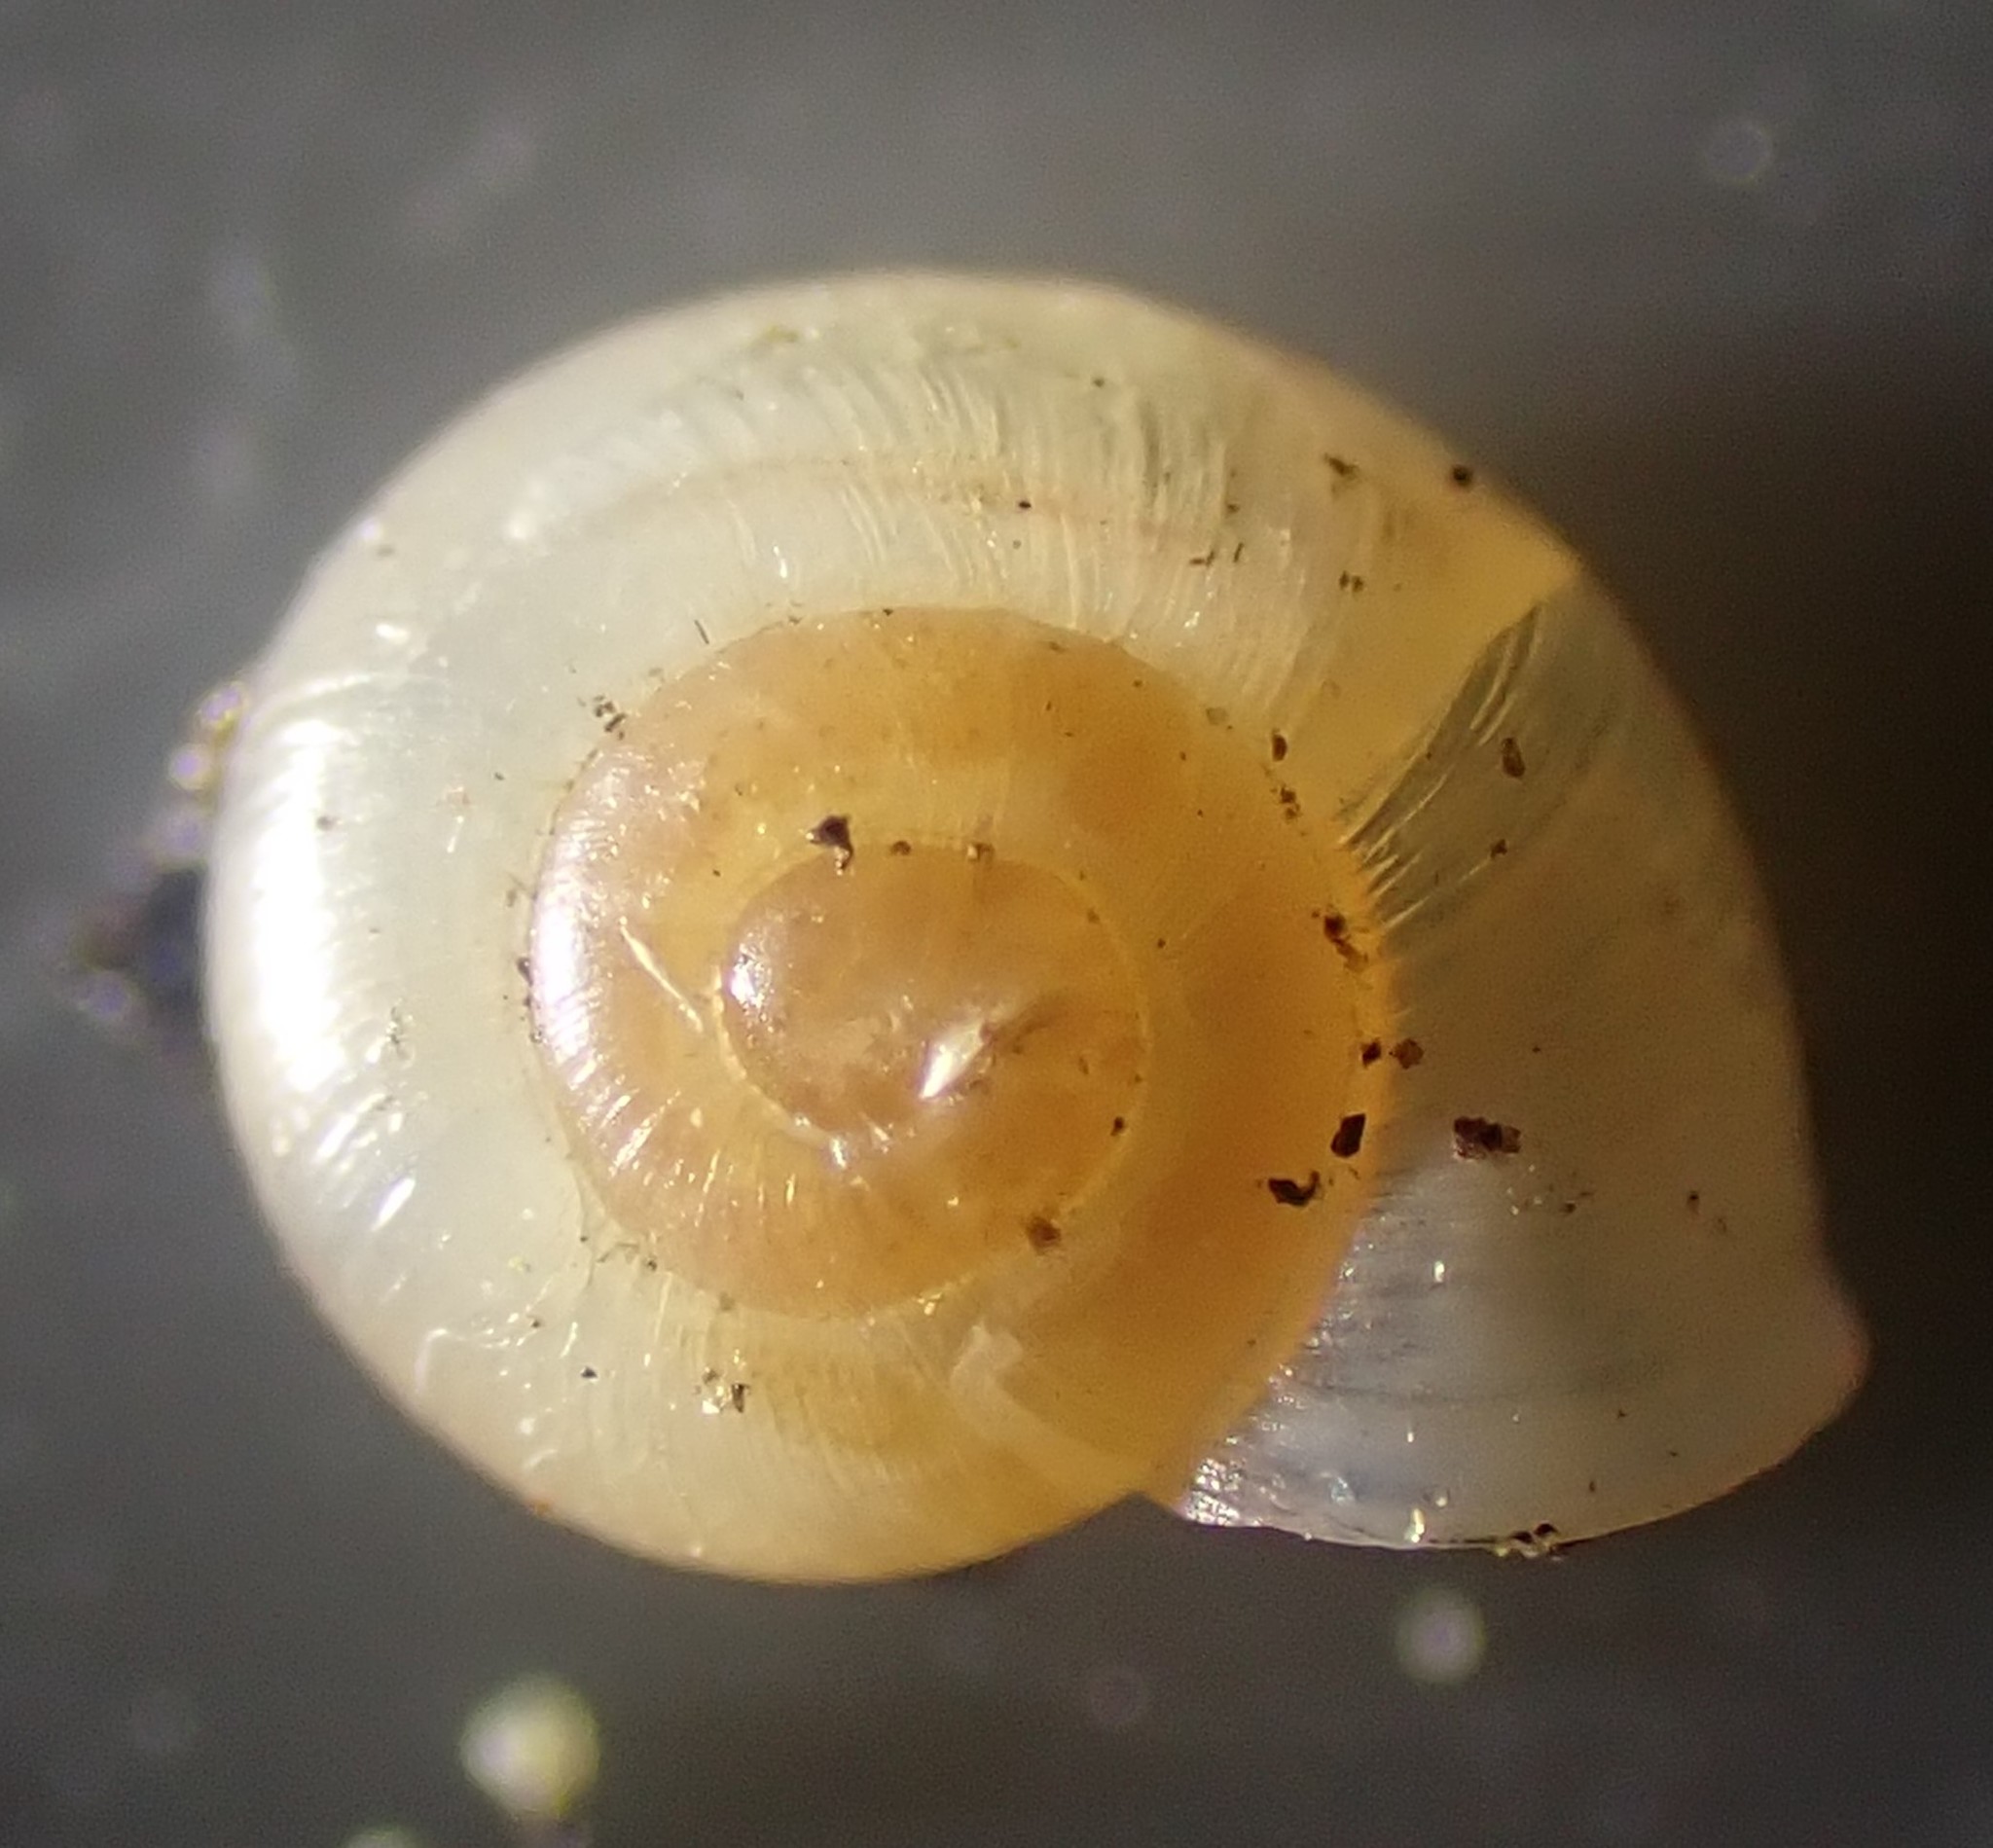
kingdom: Animalia
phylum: Mollusca
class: Gastropoda
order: Stylommatophora
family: Valloniidae
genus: Vallonia
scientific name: Vallonia pulchella
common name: Smooth grass snail
